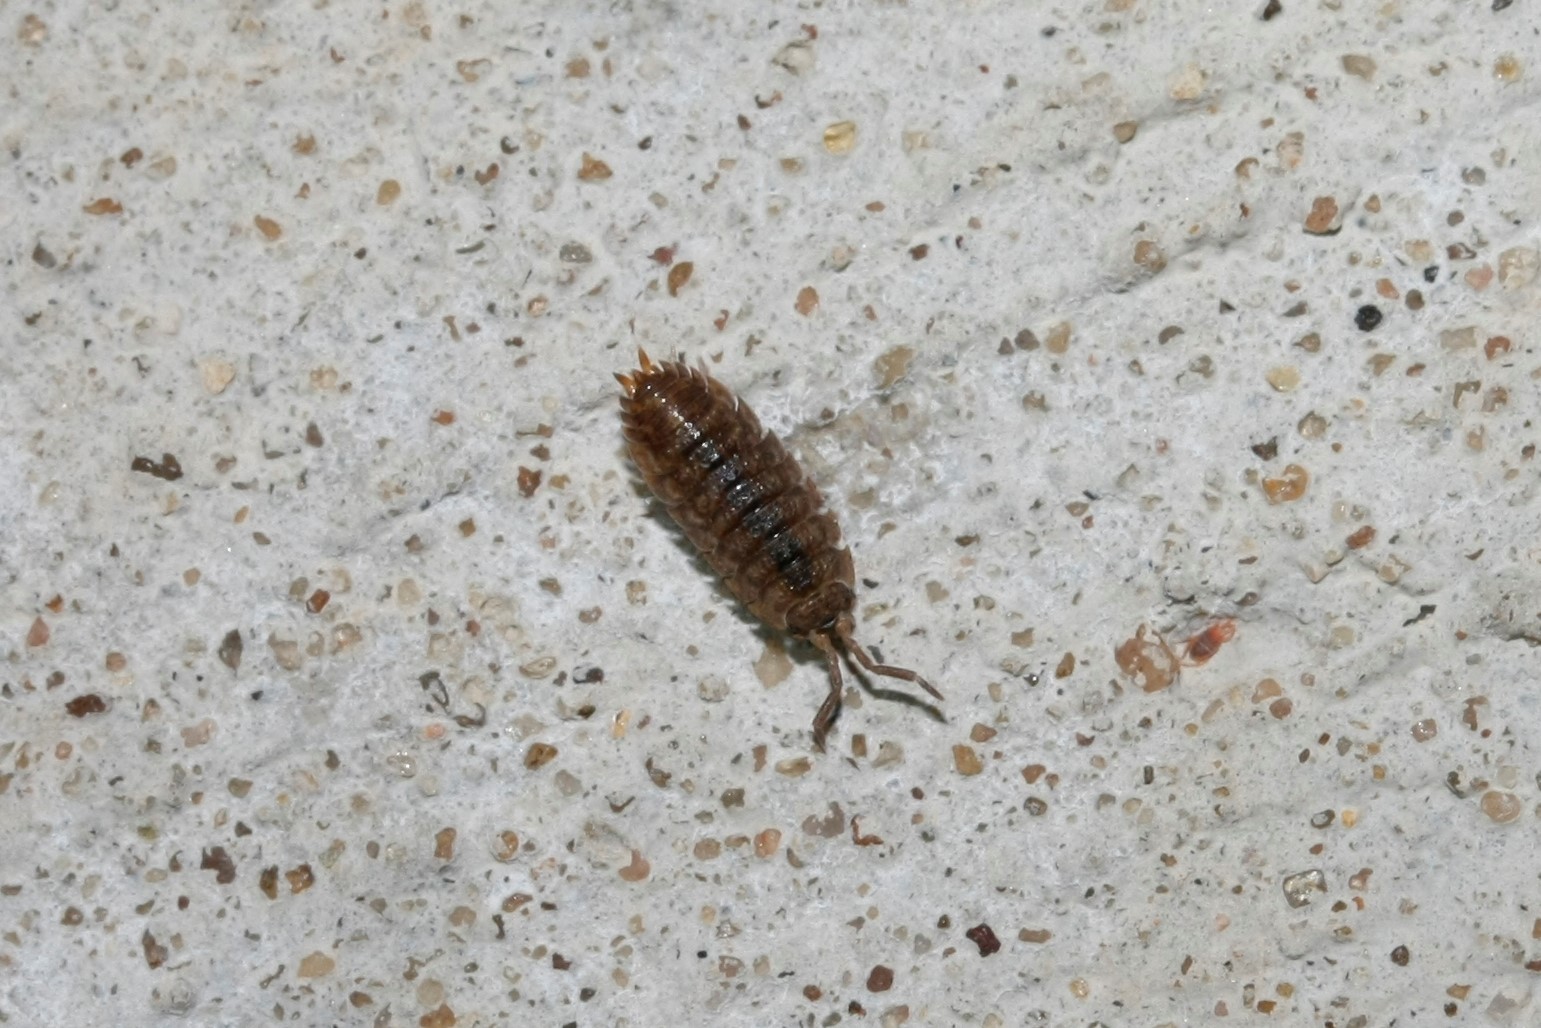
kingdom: Animalia
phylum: Arthropoda
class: Malacostraca
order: Isopoda
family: Porcellionidae
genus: Porcellio
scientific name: Porcellio scaber
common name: Common rough woodlouse
